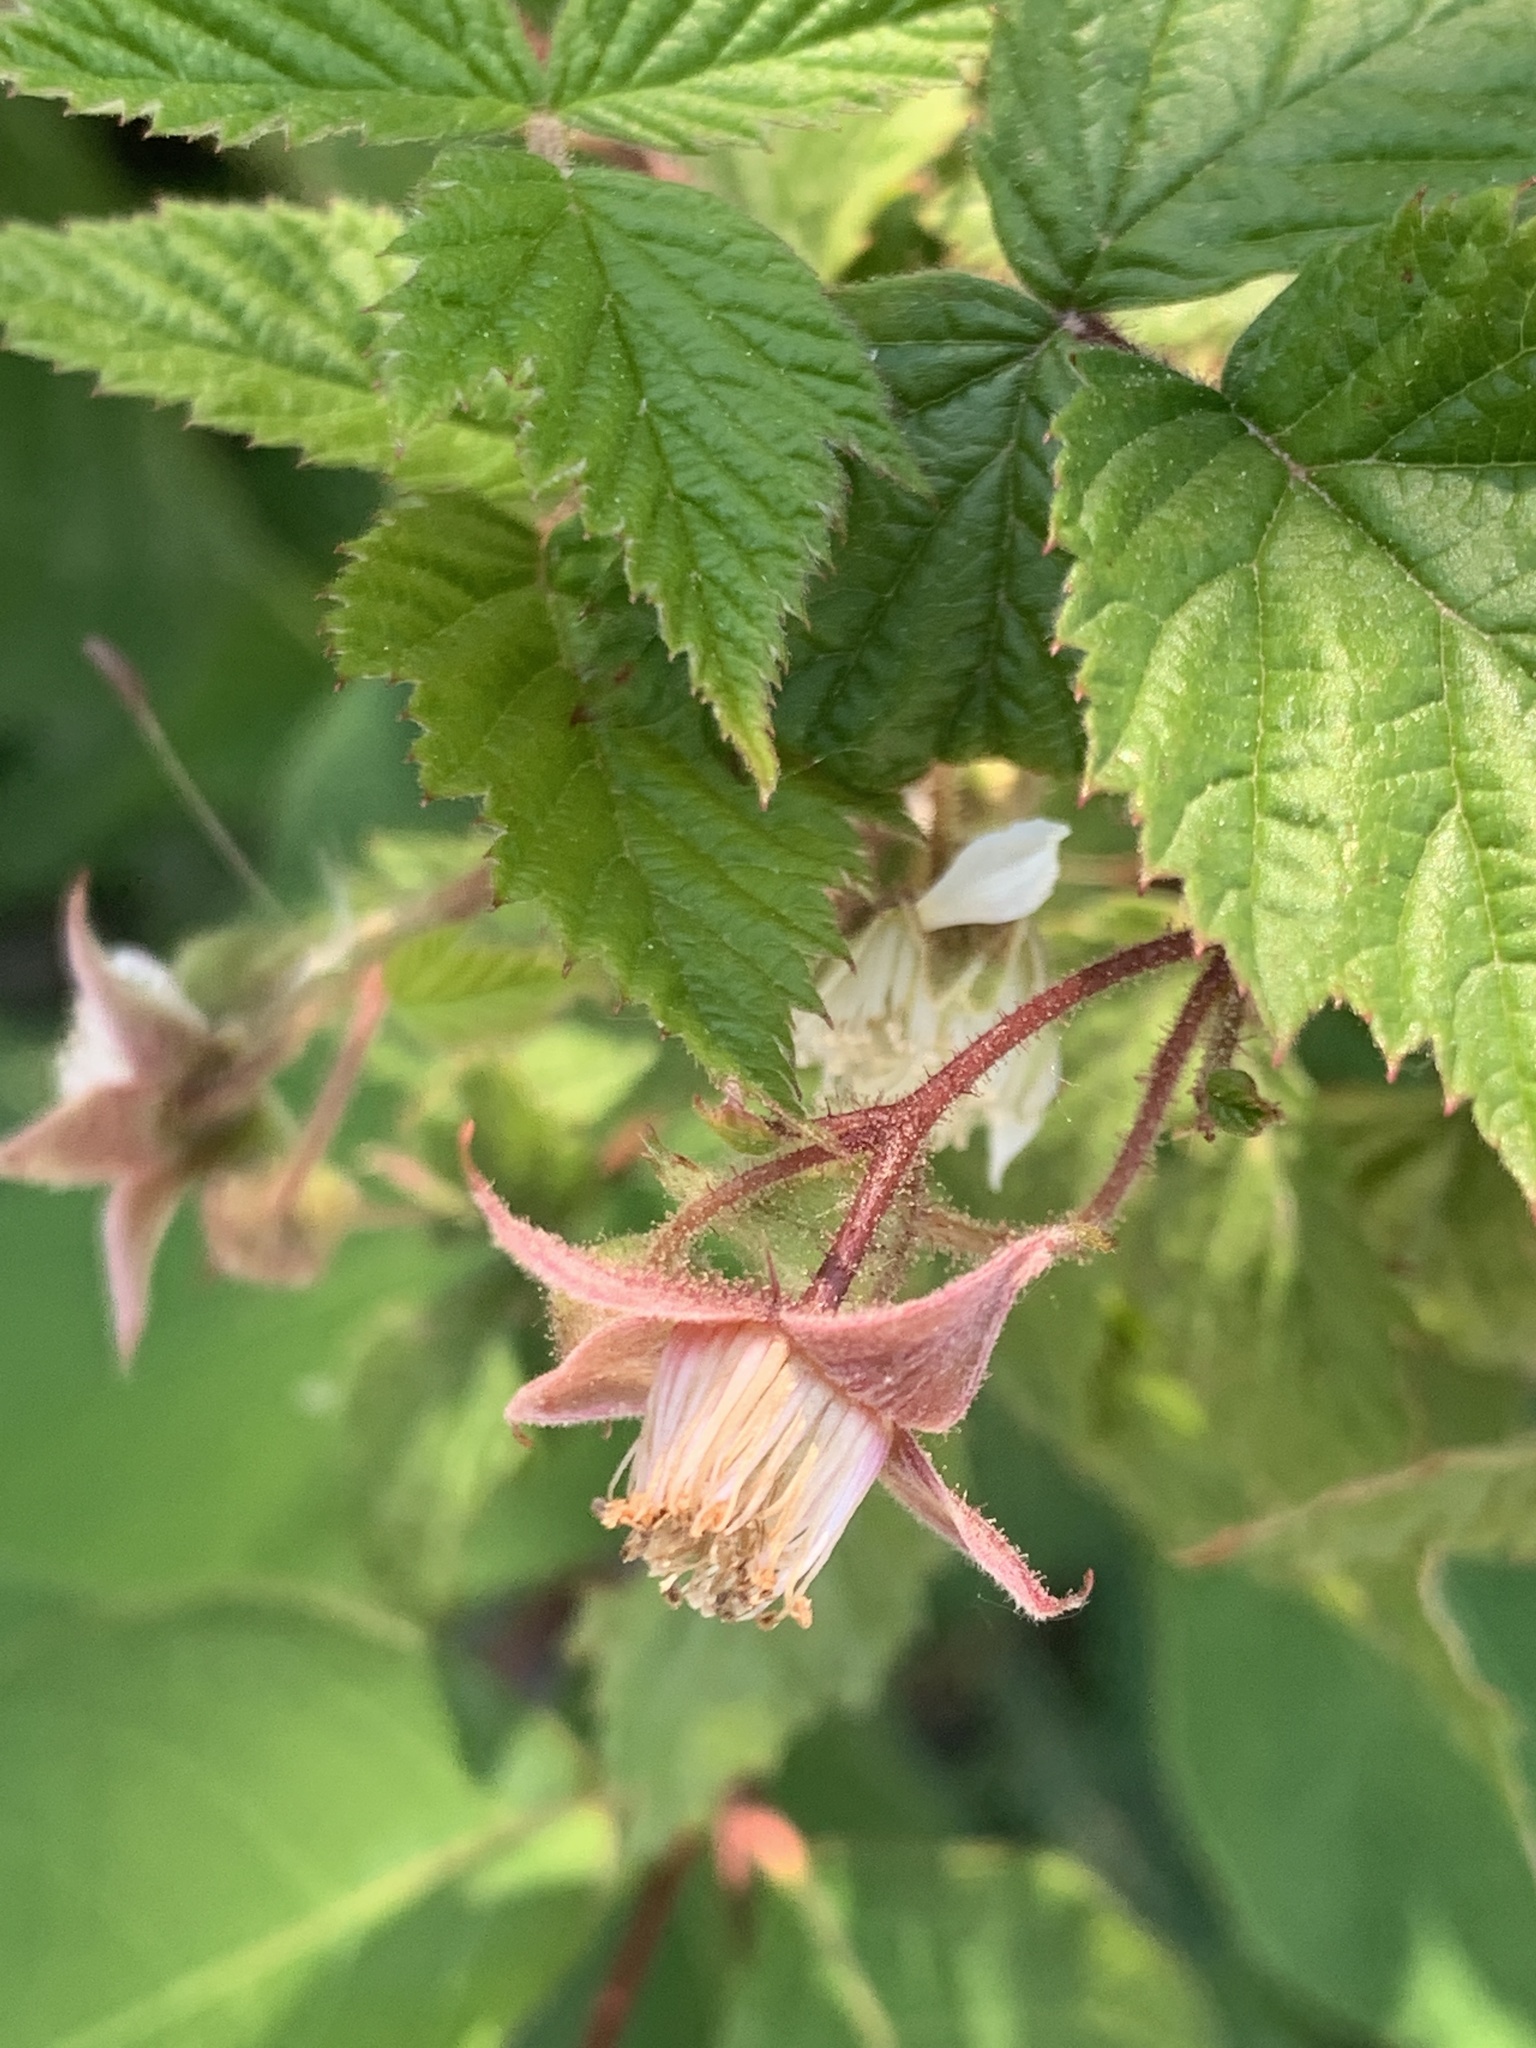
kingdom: Plantae
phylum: Tracheophyta
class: Magnoliopsida
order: Rosales
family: Rosaceae
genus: Rubus
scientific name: Rubus idaeus
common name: Raspberry
